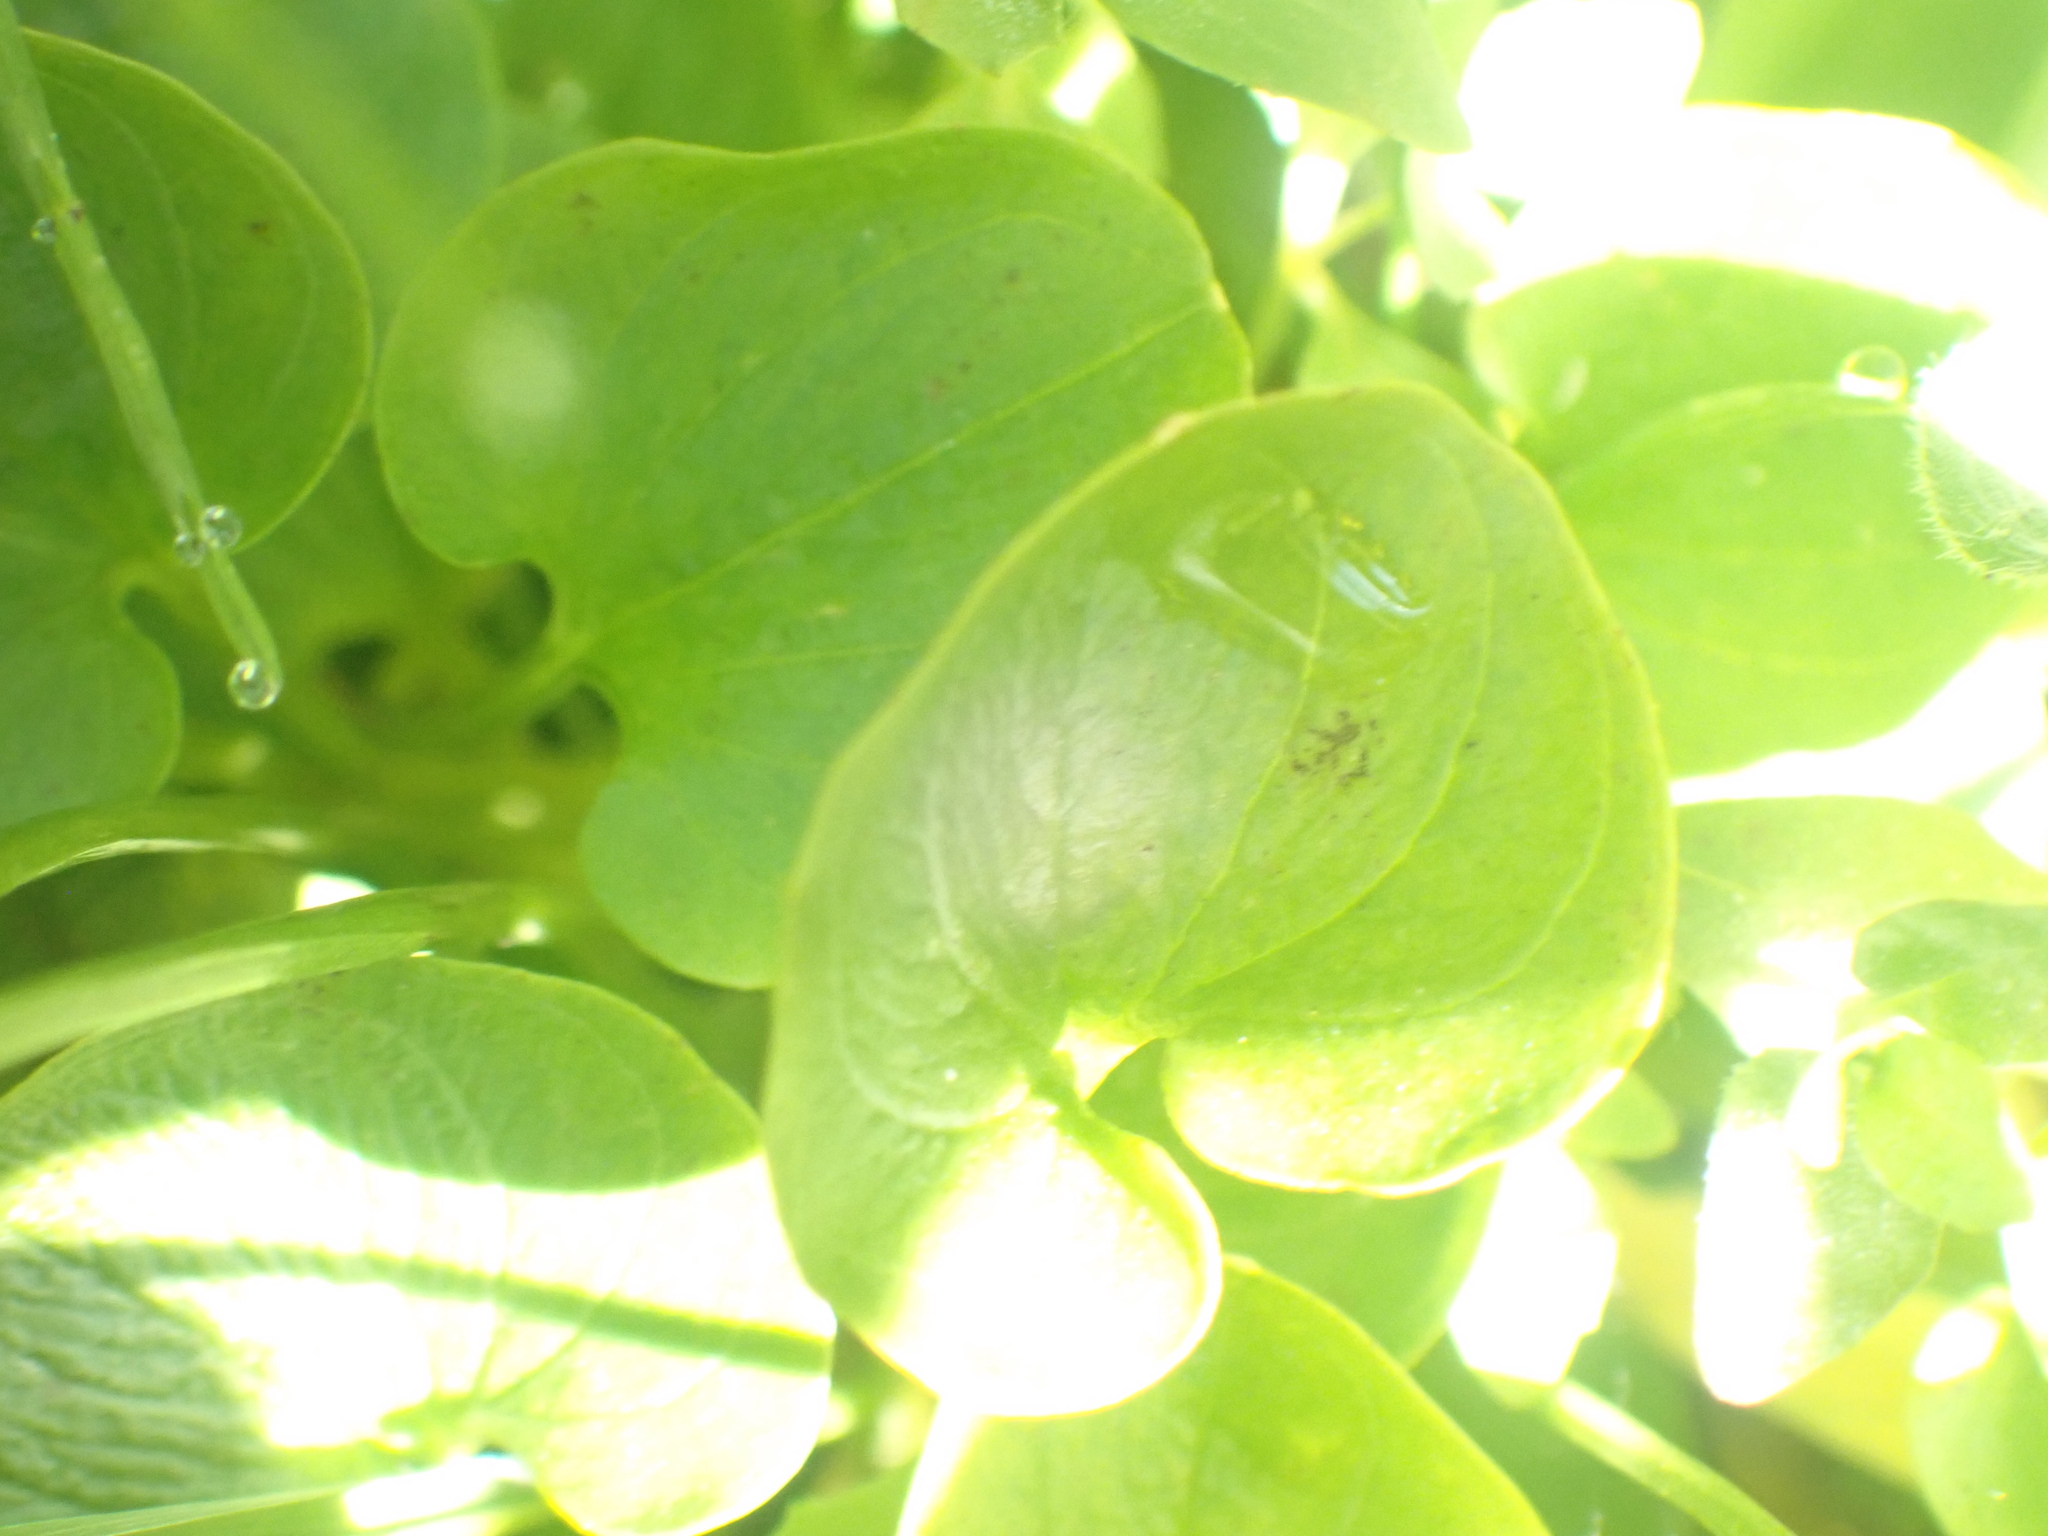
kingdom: Plantae
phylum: Tracheophyta
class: Magnoliopsida
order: Celastrales
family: Parnassiaceae
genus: Parnassia
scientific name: Parnassia fimbriata
